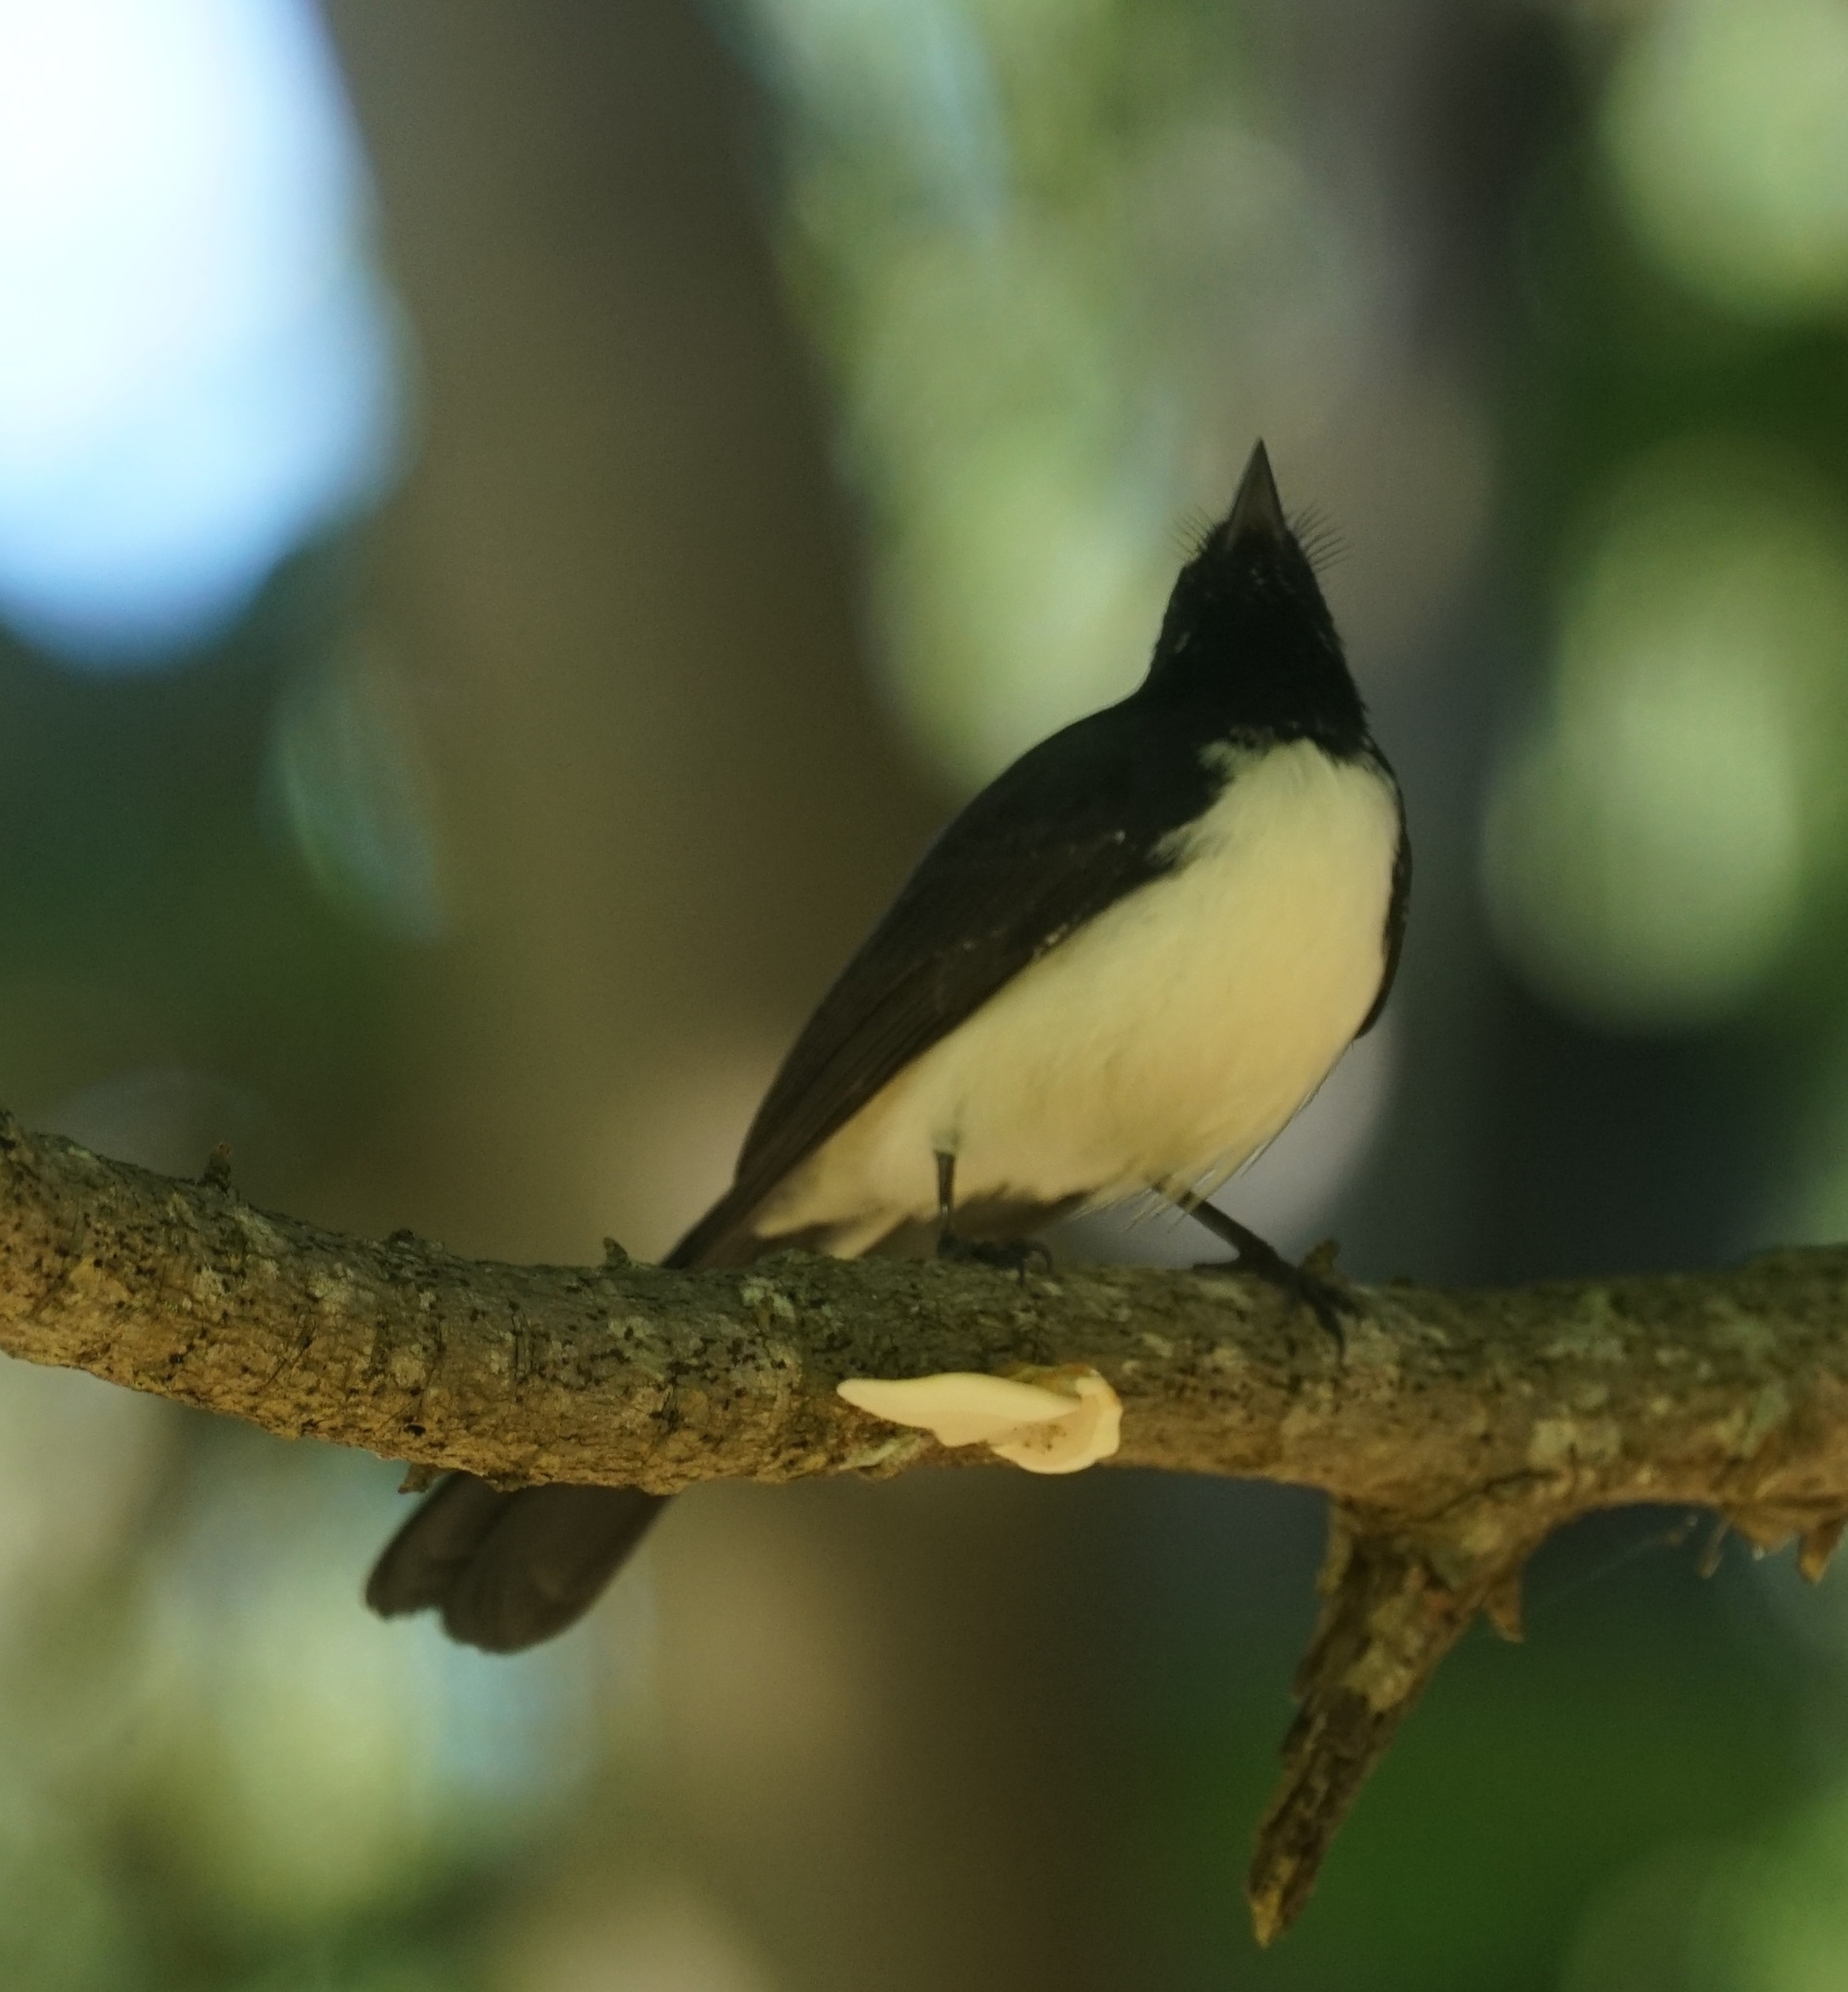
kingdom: Animalia
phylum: Chordata
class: Aves
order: Passeriformes
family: Rhipiduridae
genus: Rhipidura
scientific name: Rhipidura leucophrys
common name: Willie wagtail
